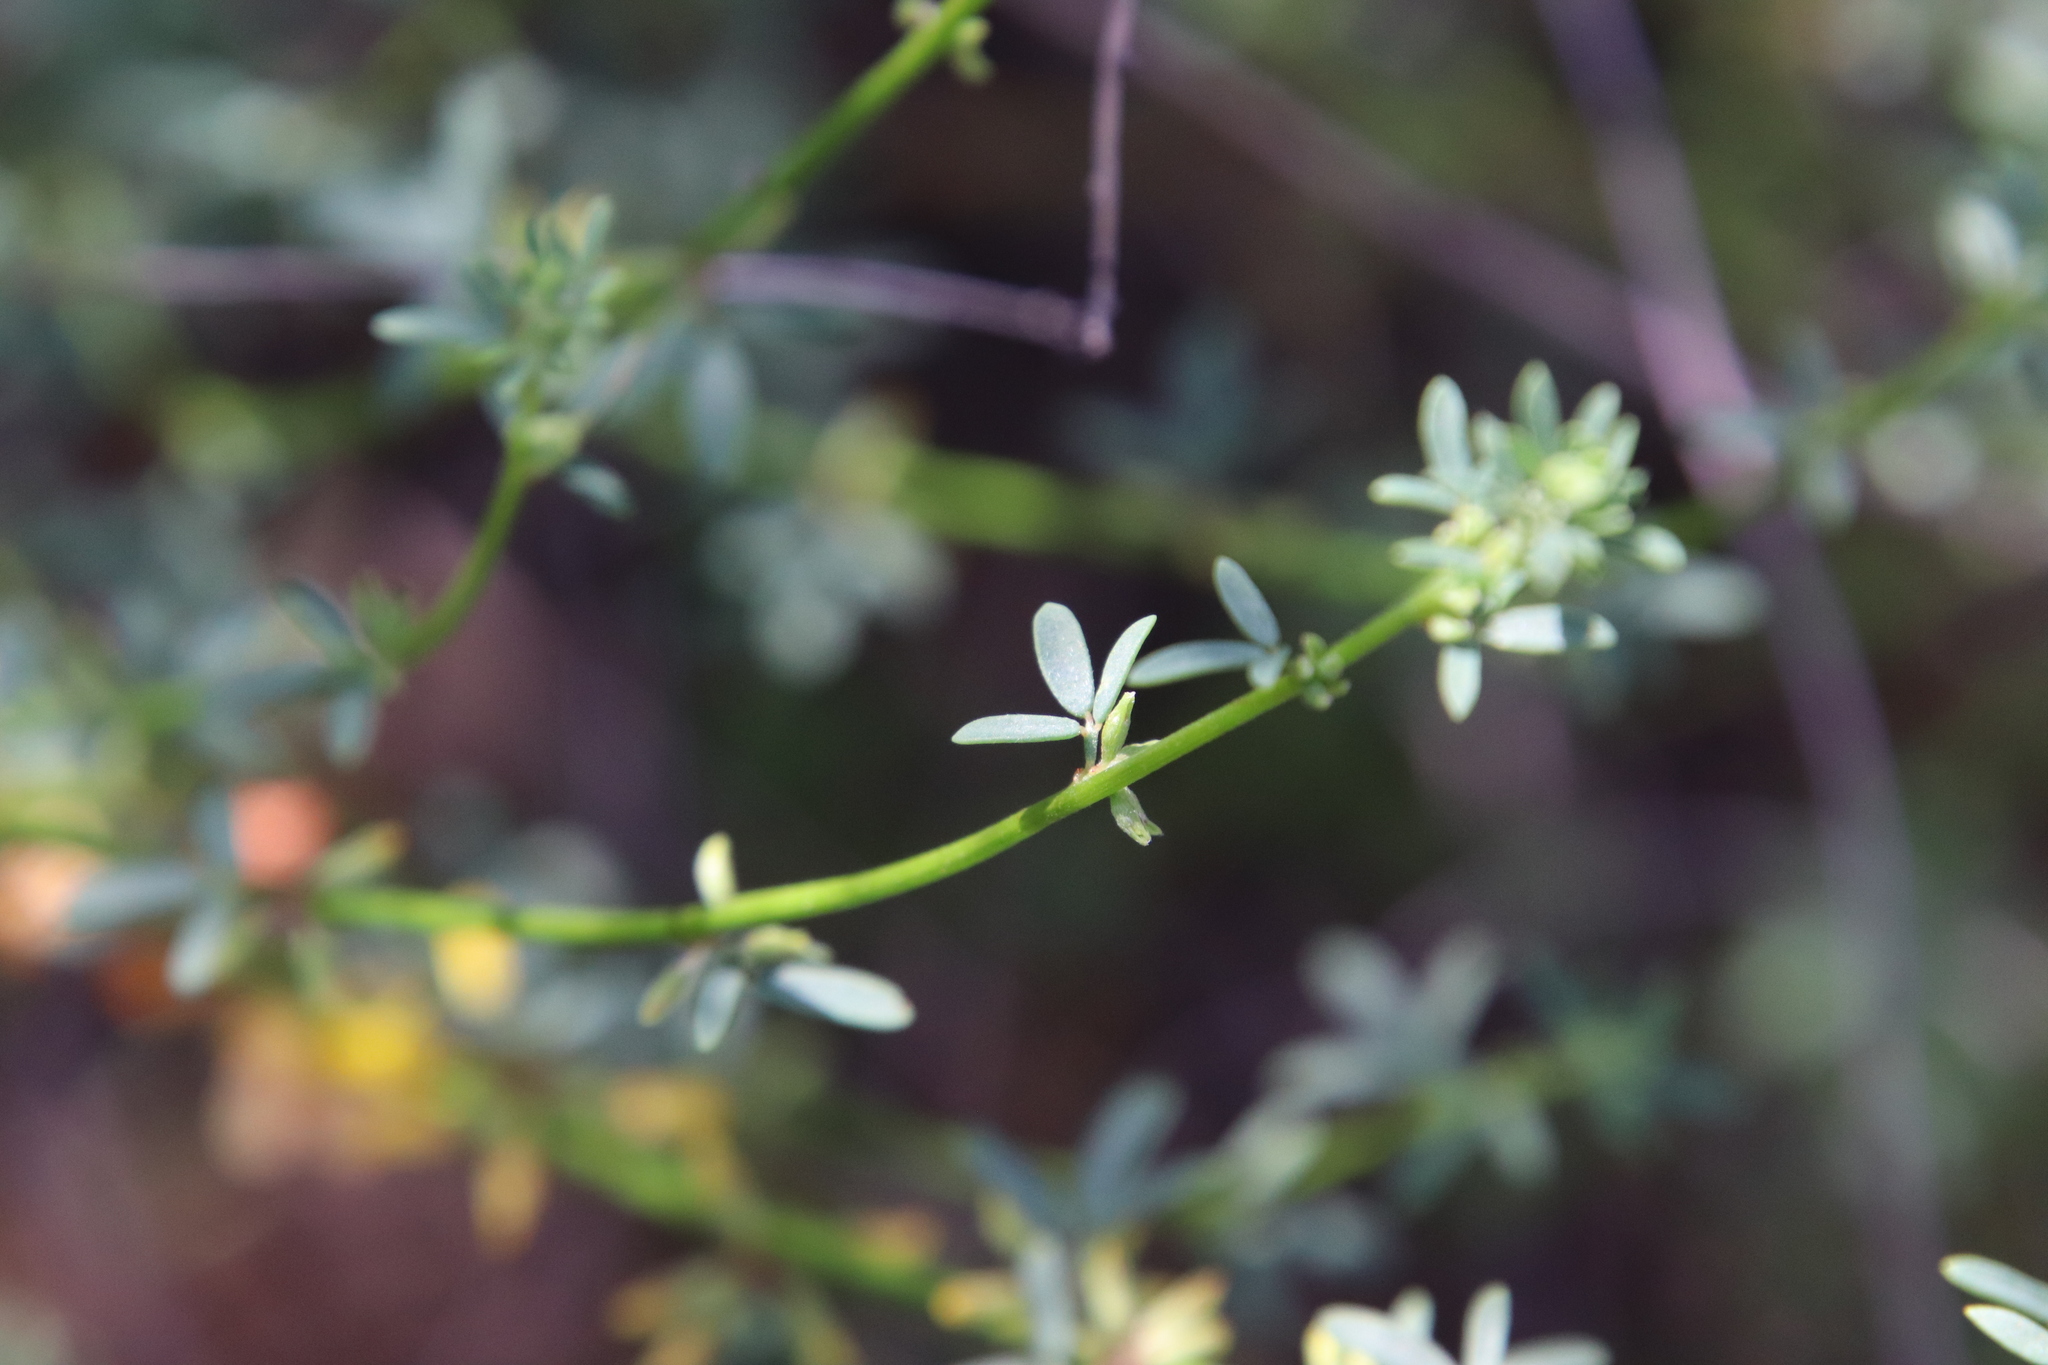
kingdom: Plantae
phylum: Tracheophyta
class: Magnoliopsida
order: Fabales
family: Fabaceae
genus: Acmispon
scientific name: Acmispon glaber
